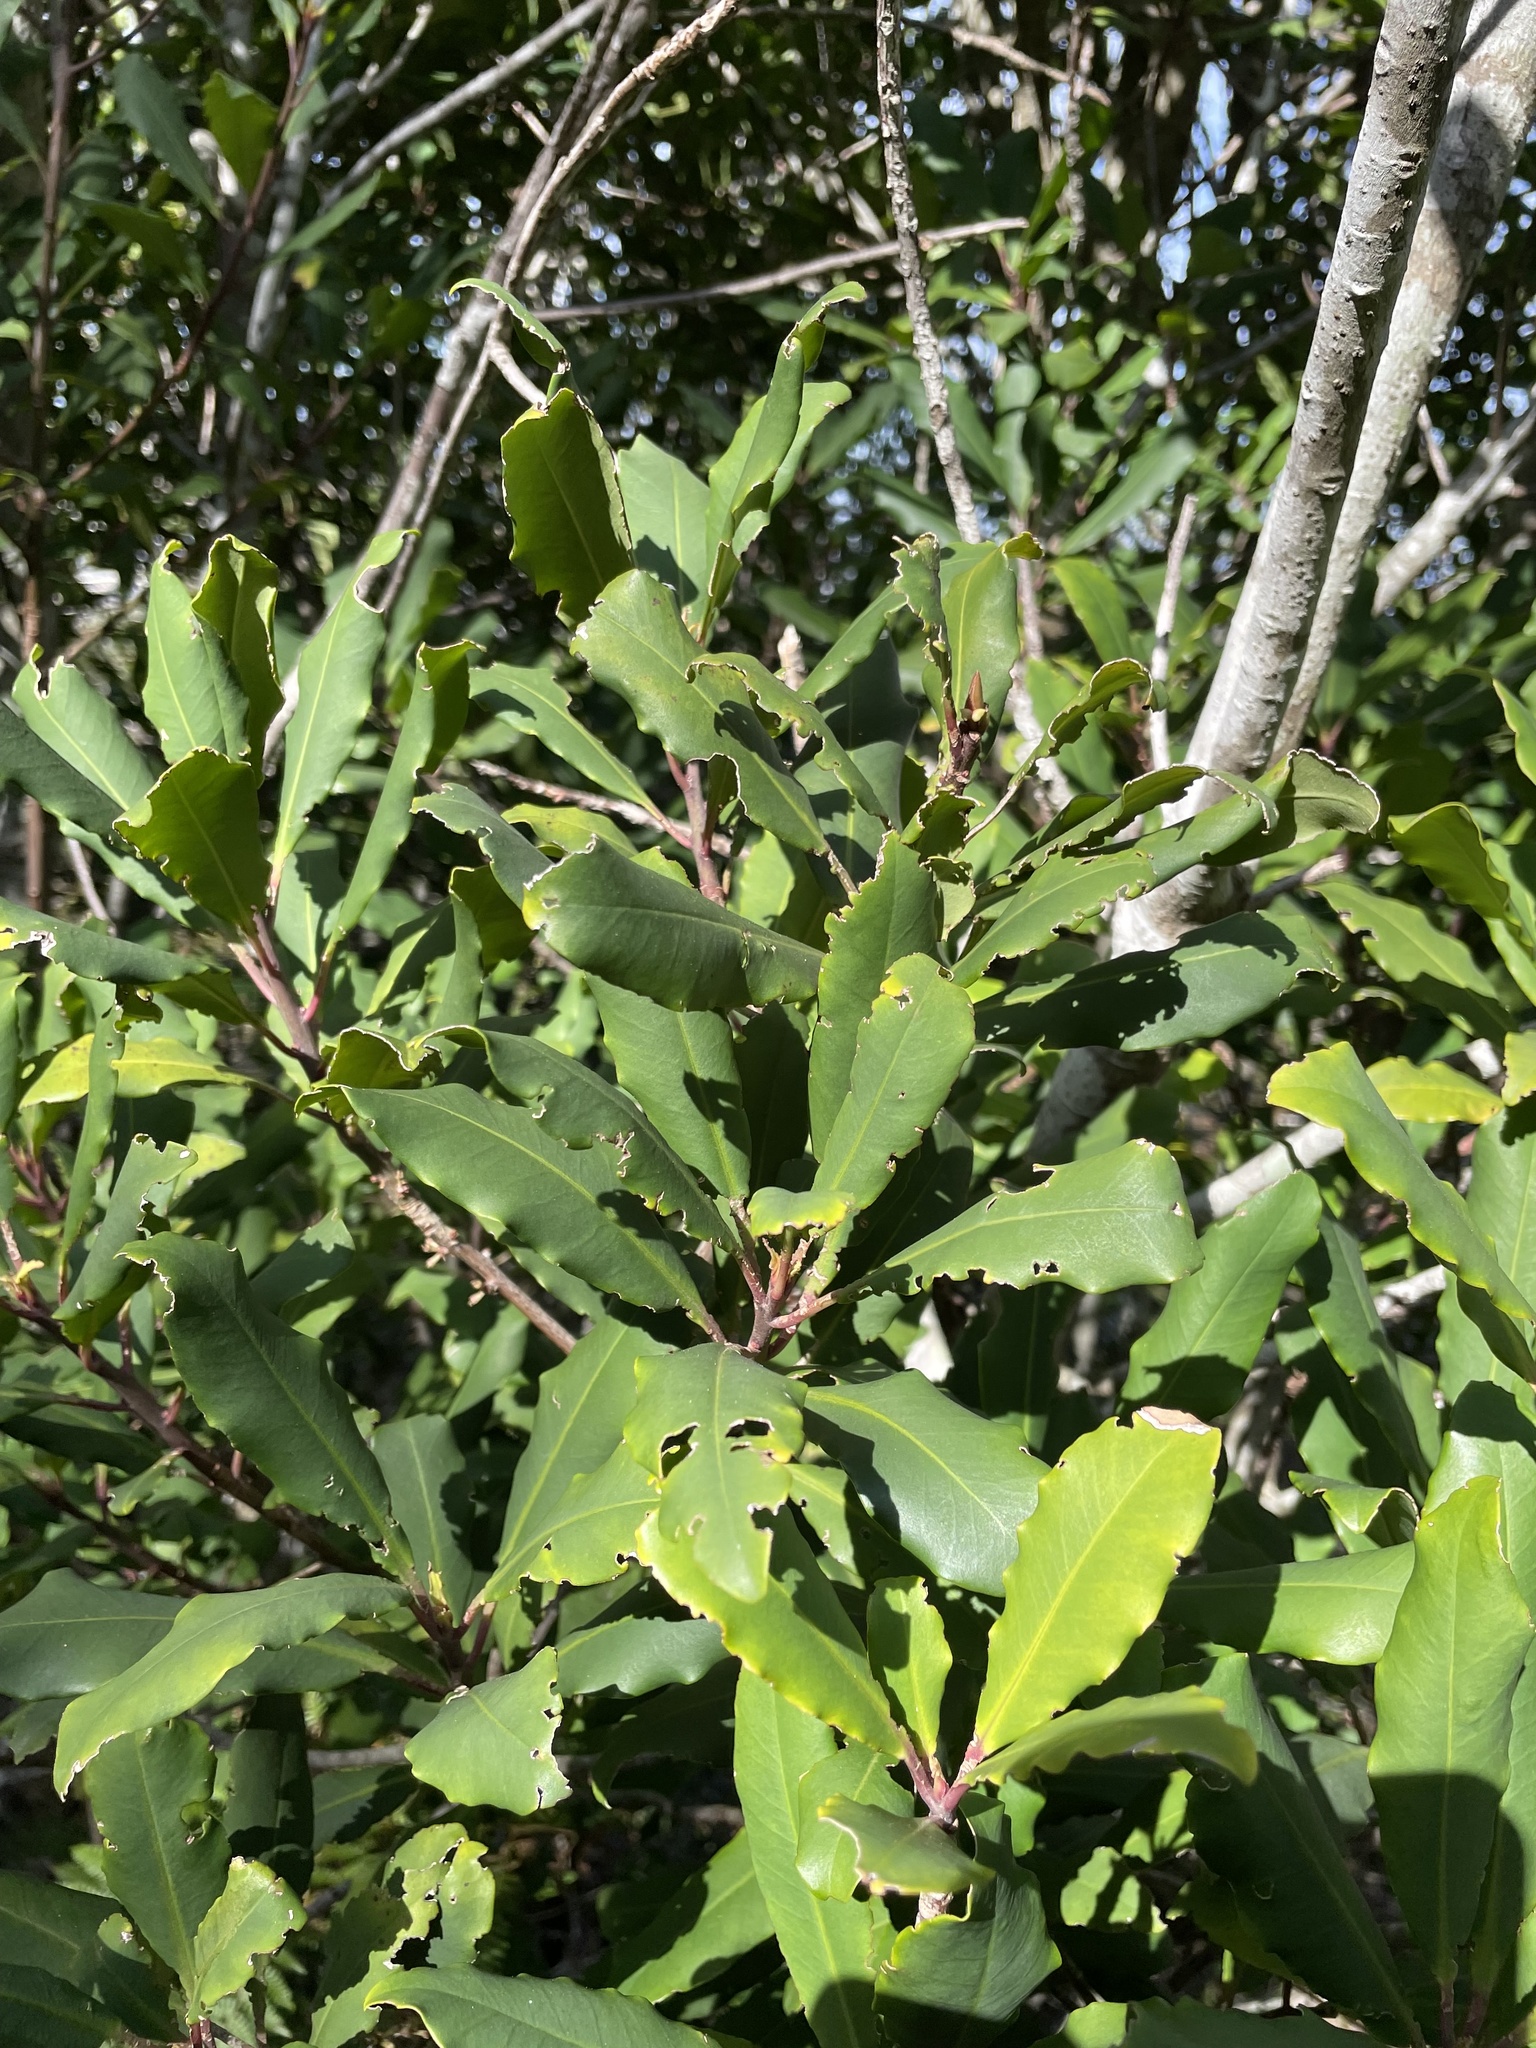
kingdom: Plantae
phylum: Tracheophyta
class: Magnoliopsida
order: Ericales
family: Primulaceae
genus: Myrsine
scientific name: Myrsine melanophloeos
